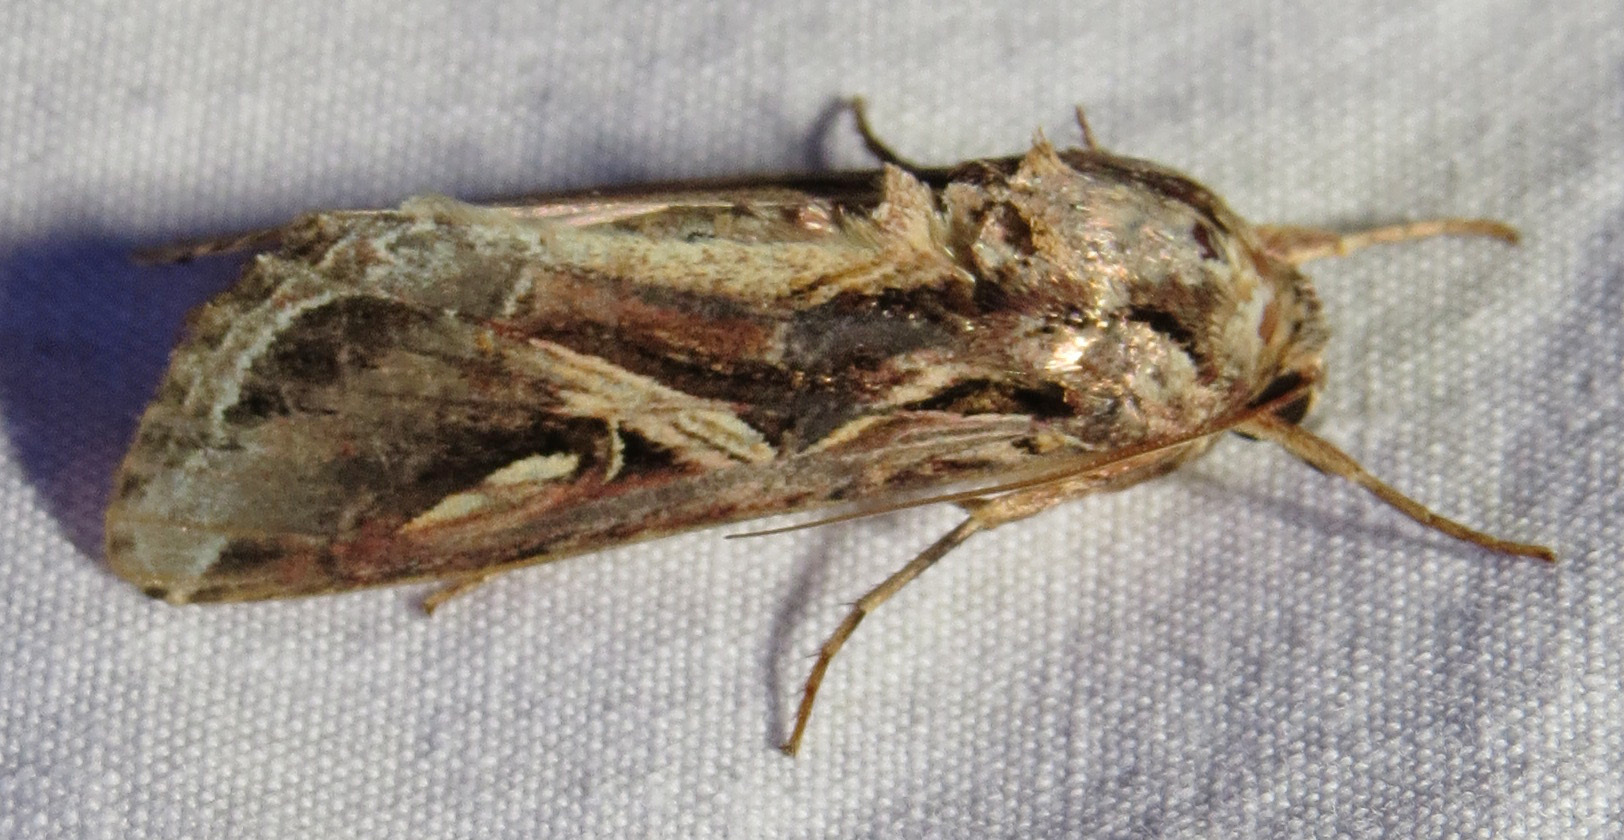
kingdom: Animalia
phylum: Arthropoda
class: Insecta
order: Lepidoptera
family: Noctuidae
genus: Spodoptera
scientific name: Spodoptera ornithogalli
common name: Yellow-striped armyworm
